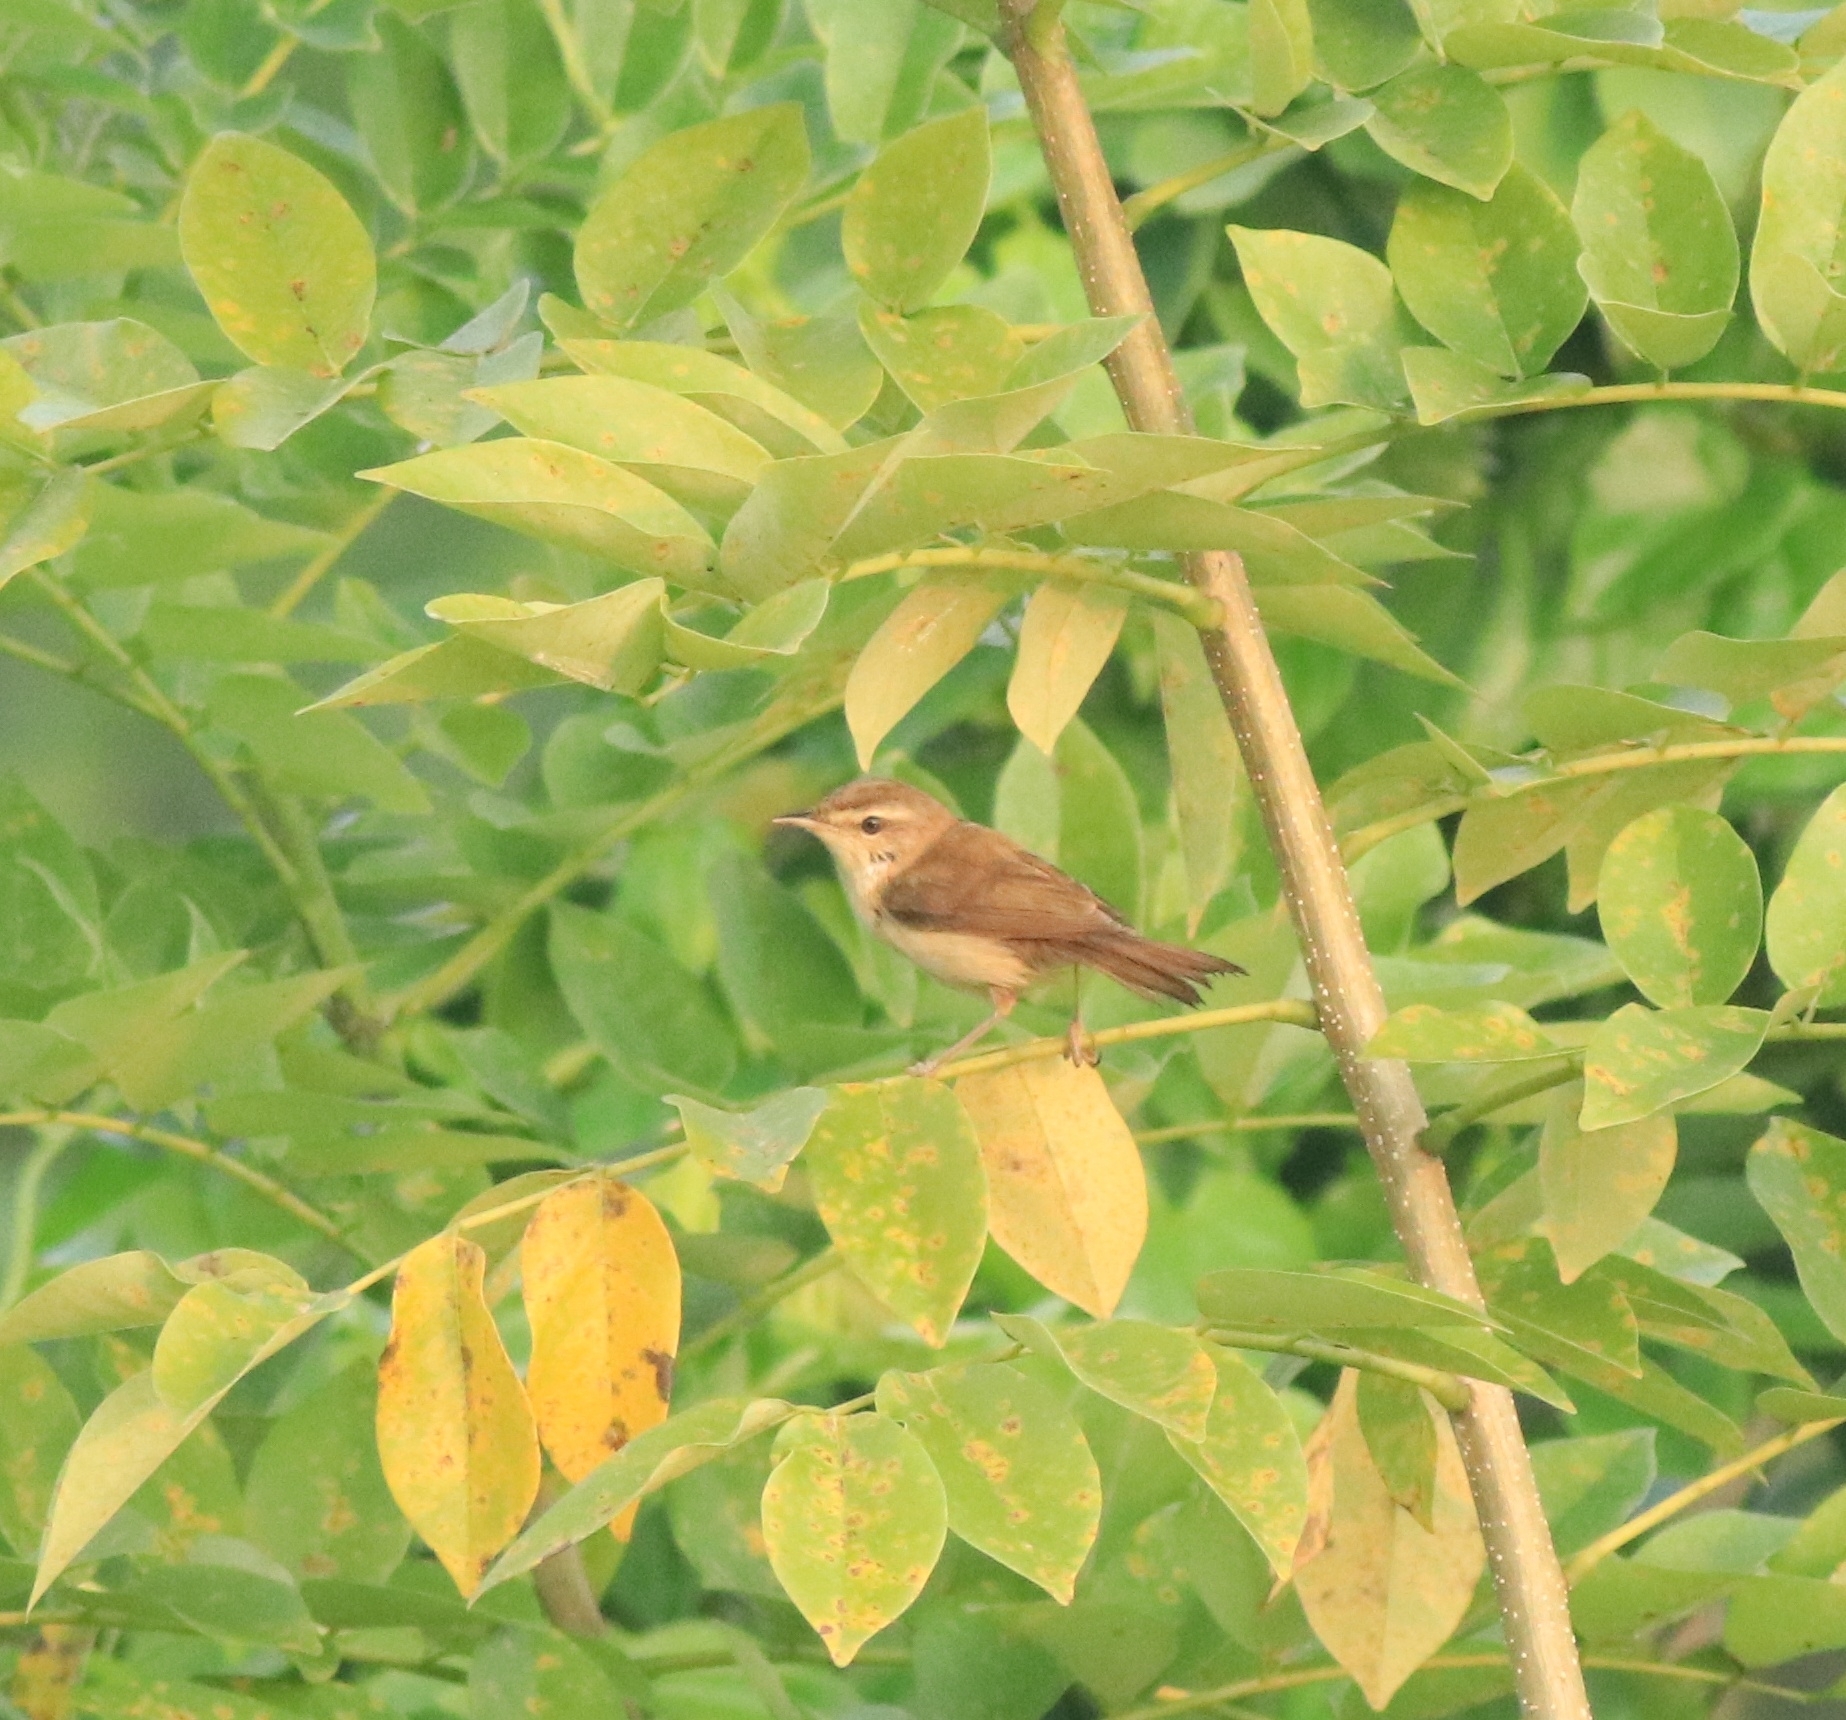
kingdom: Animalia
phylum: Chordata
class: Aves
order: Passeriformes
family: Acrocephalidae
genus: Acrocephalus
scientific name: Acrocephalus agricola
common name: Paddyfield warbler
